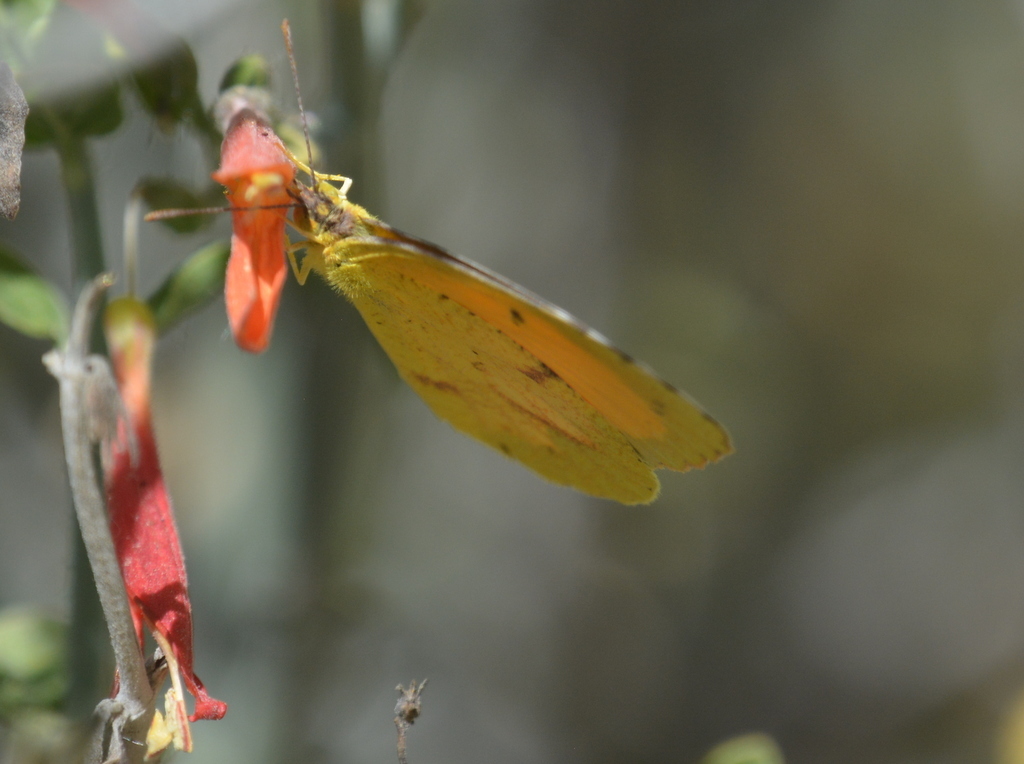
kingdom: Animalia
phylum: Arthropoda
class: Insecta
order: Lepidoptera
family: Pieridae
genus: Abaeis
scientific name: Abaeis nicippe
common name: Sleepy orange
